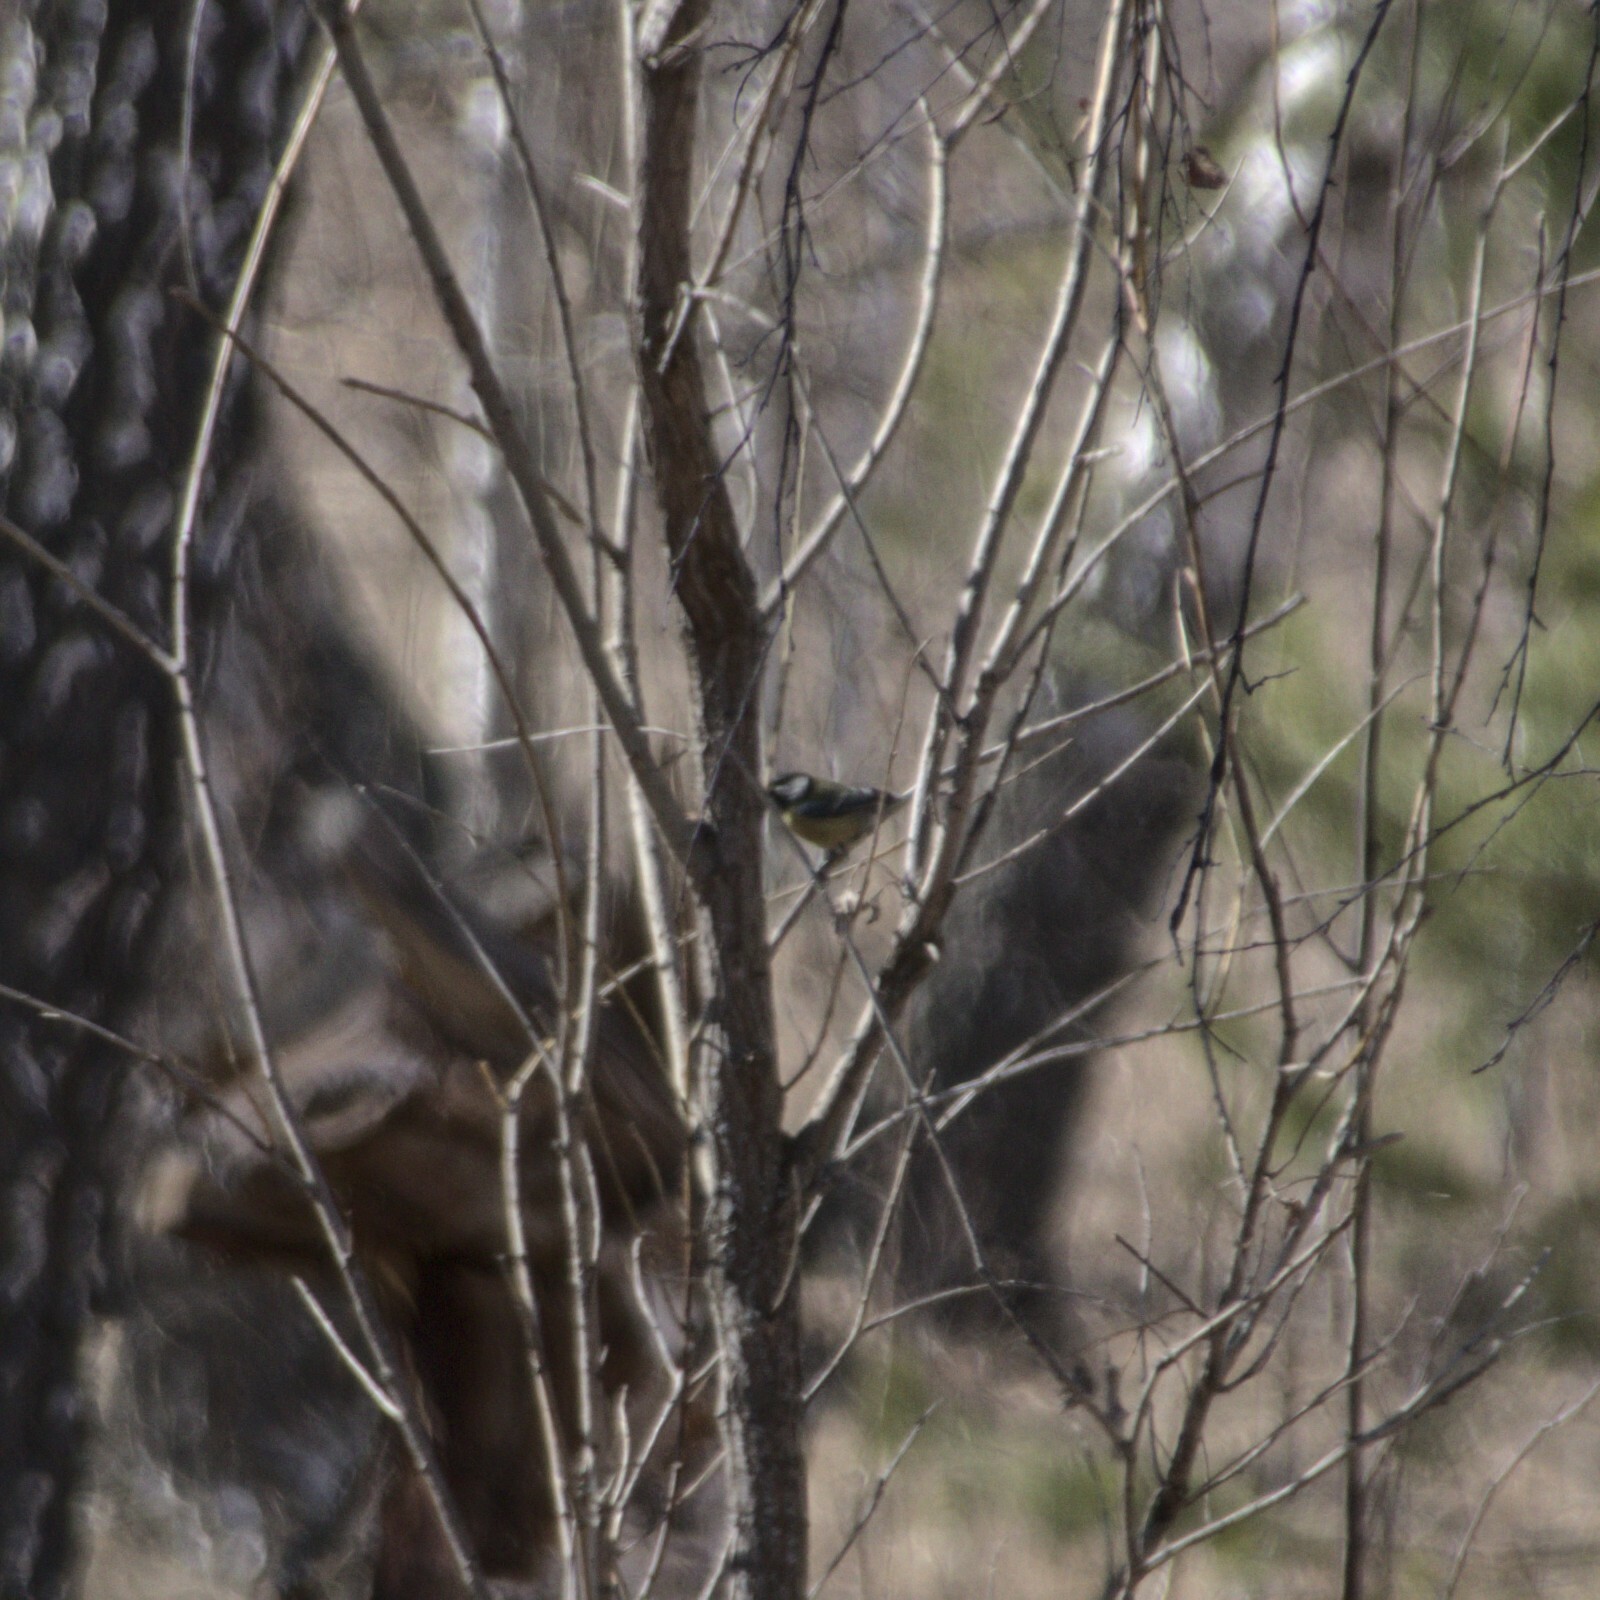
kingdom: Animalia
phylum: Chordata
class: Aves
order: Passeriformes
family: Paridae
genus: Parus
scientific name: Parus major
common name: Great tit
